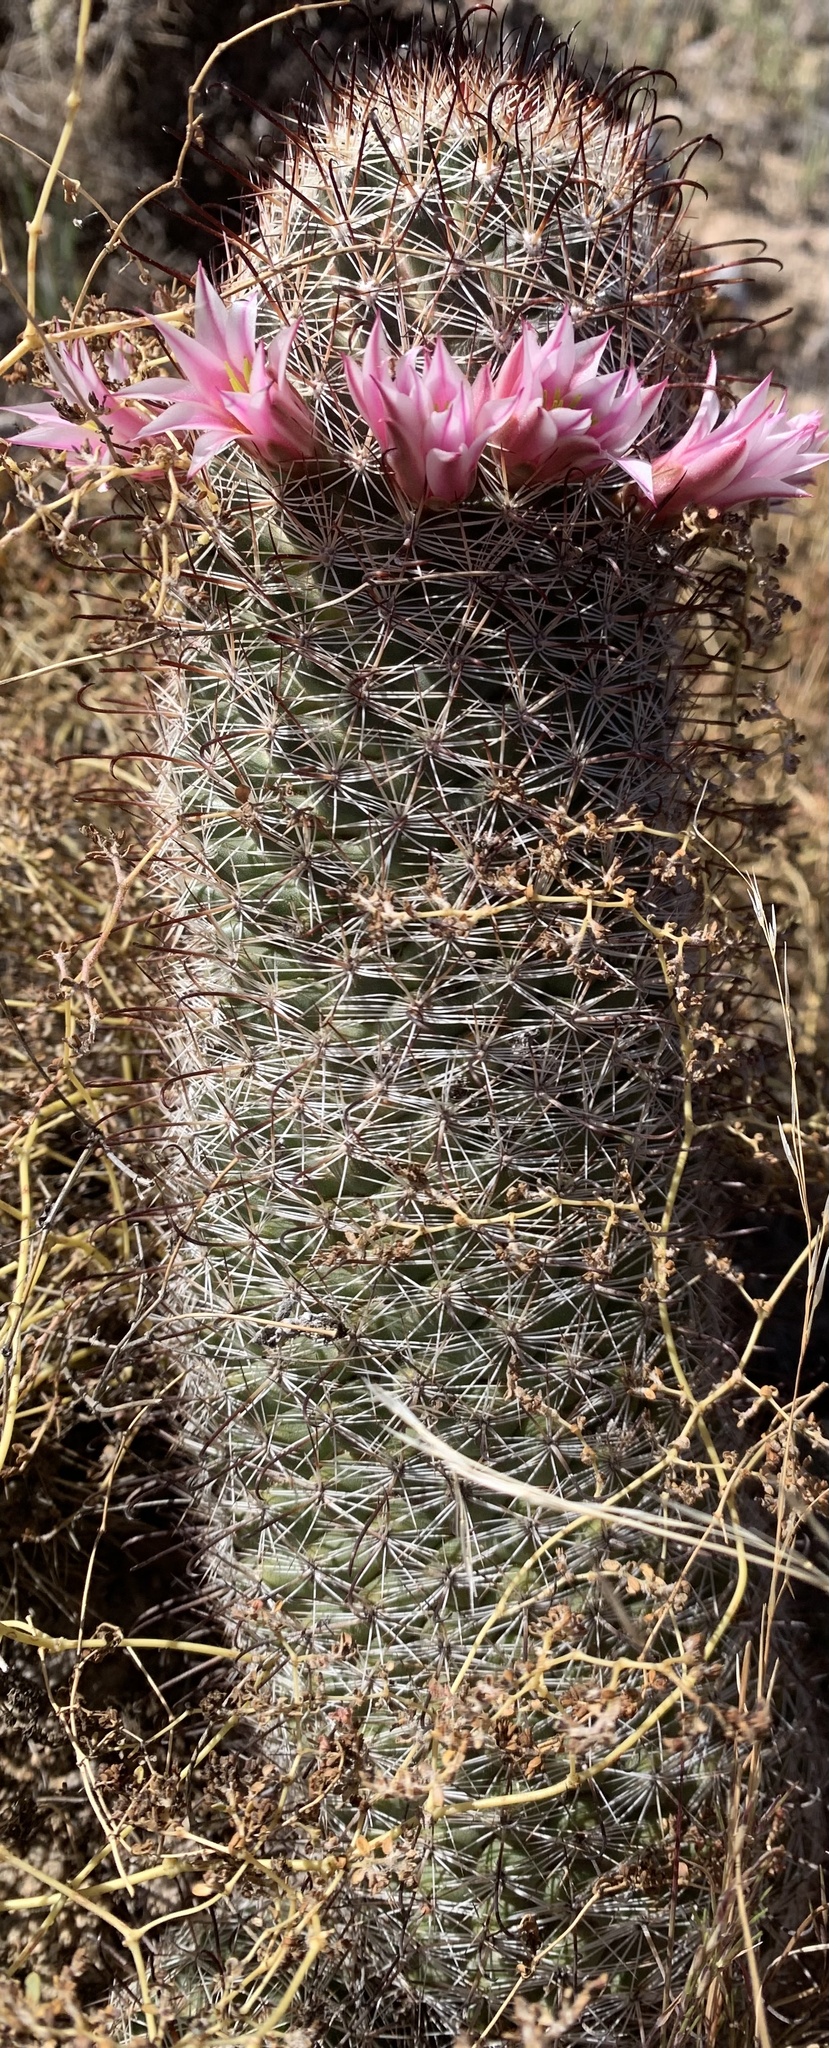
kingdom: Plantae
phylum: Tracheophyta
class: Magnoliopsida
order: Caryophyllales
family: Cactaceae
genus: Cochemiea
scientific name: Cochemiea grahamii
